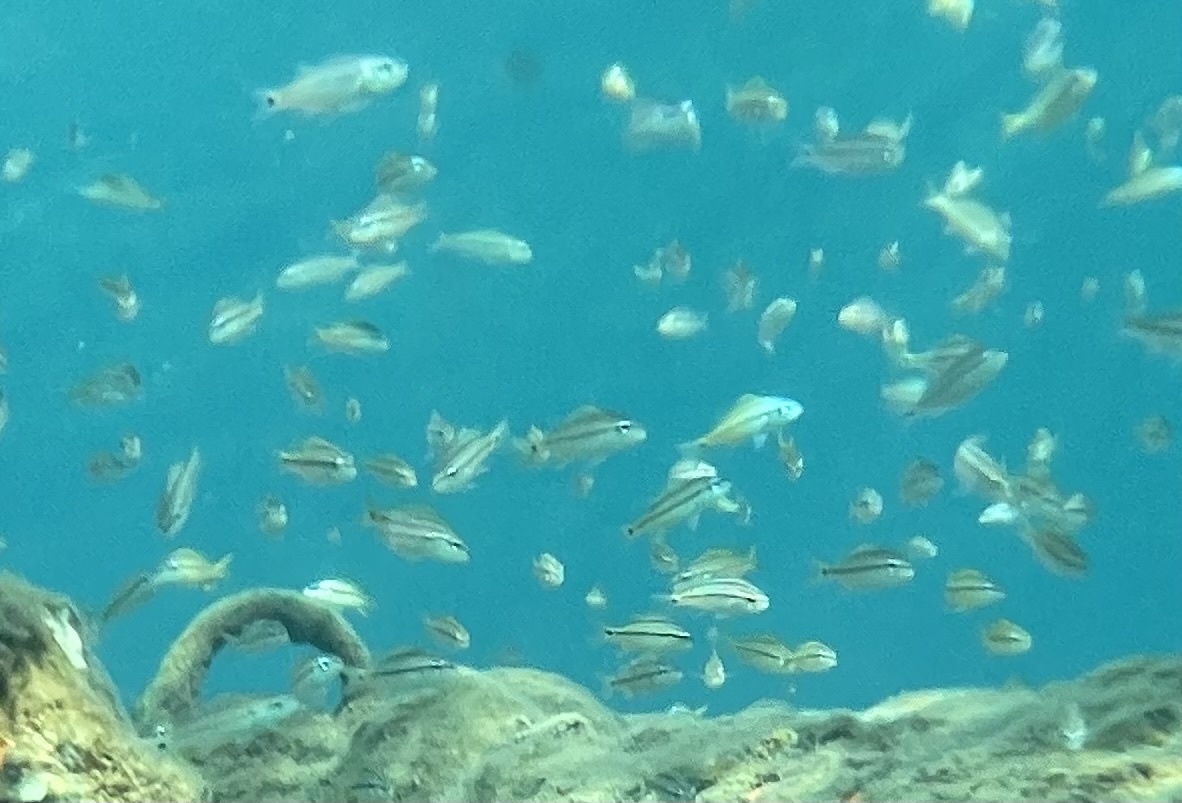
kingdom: Animalia
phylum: Chordata
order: Perciformes
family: Haemulidae
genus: Haemulon
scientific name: Haemulon aurolineatum
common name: Tomtate
